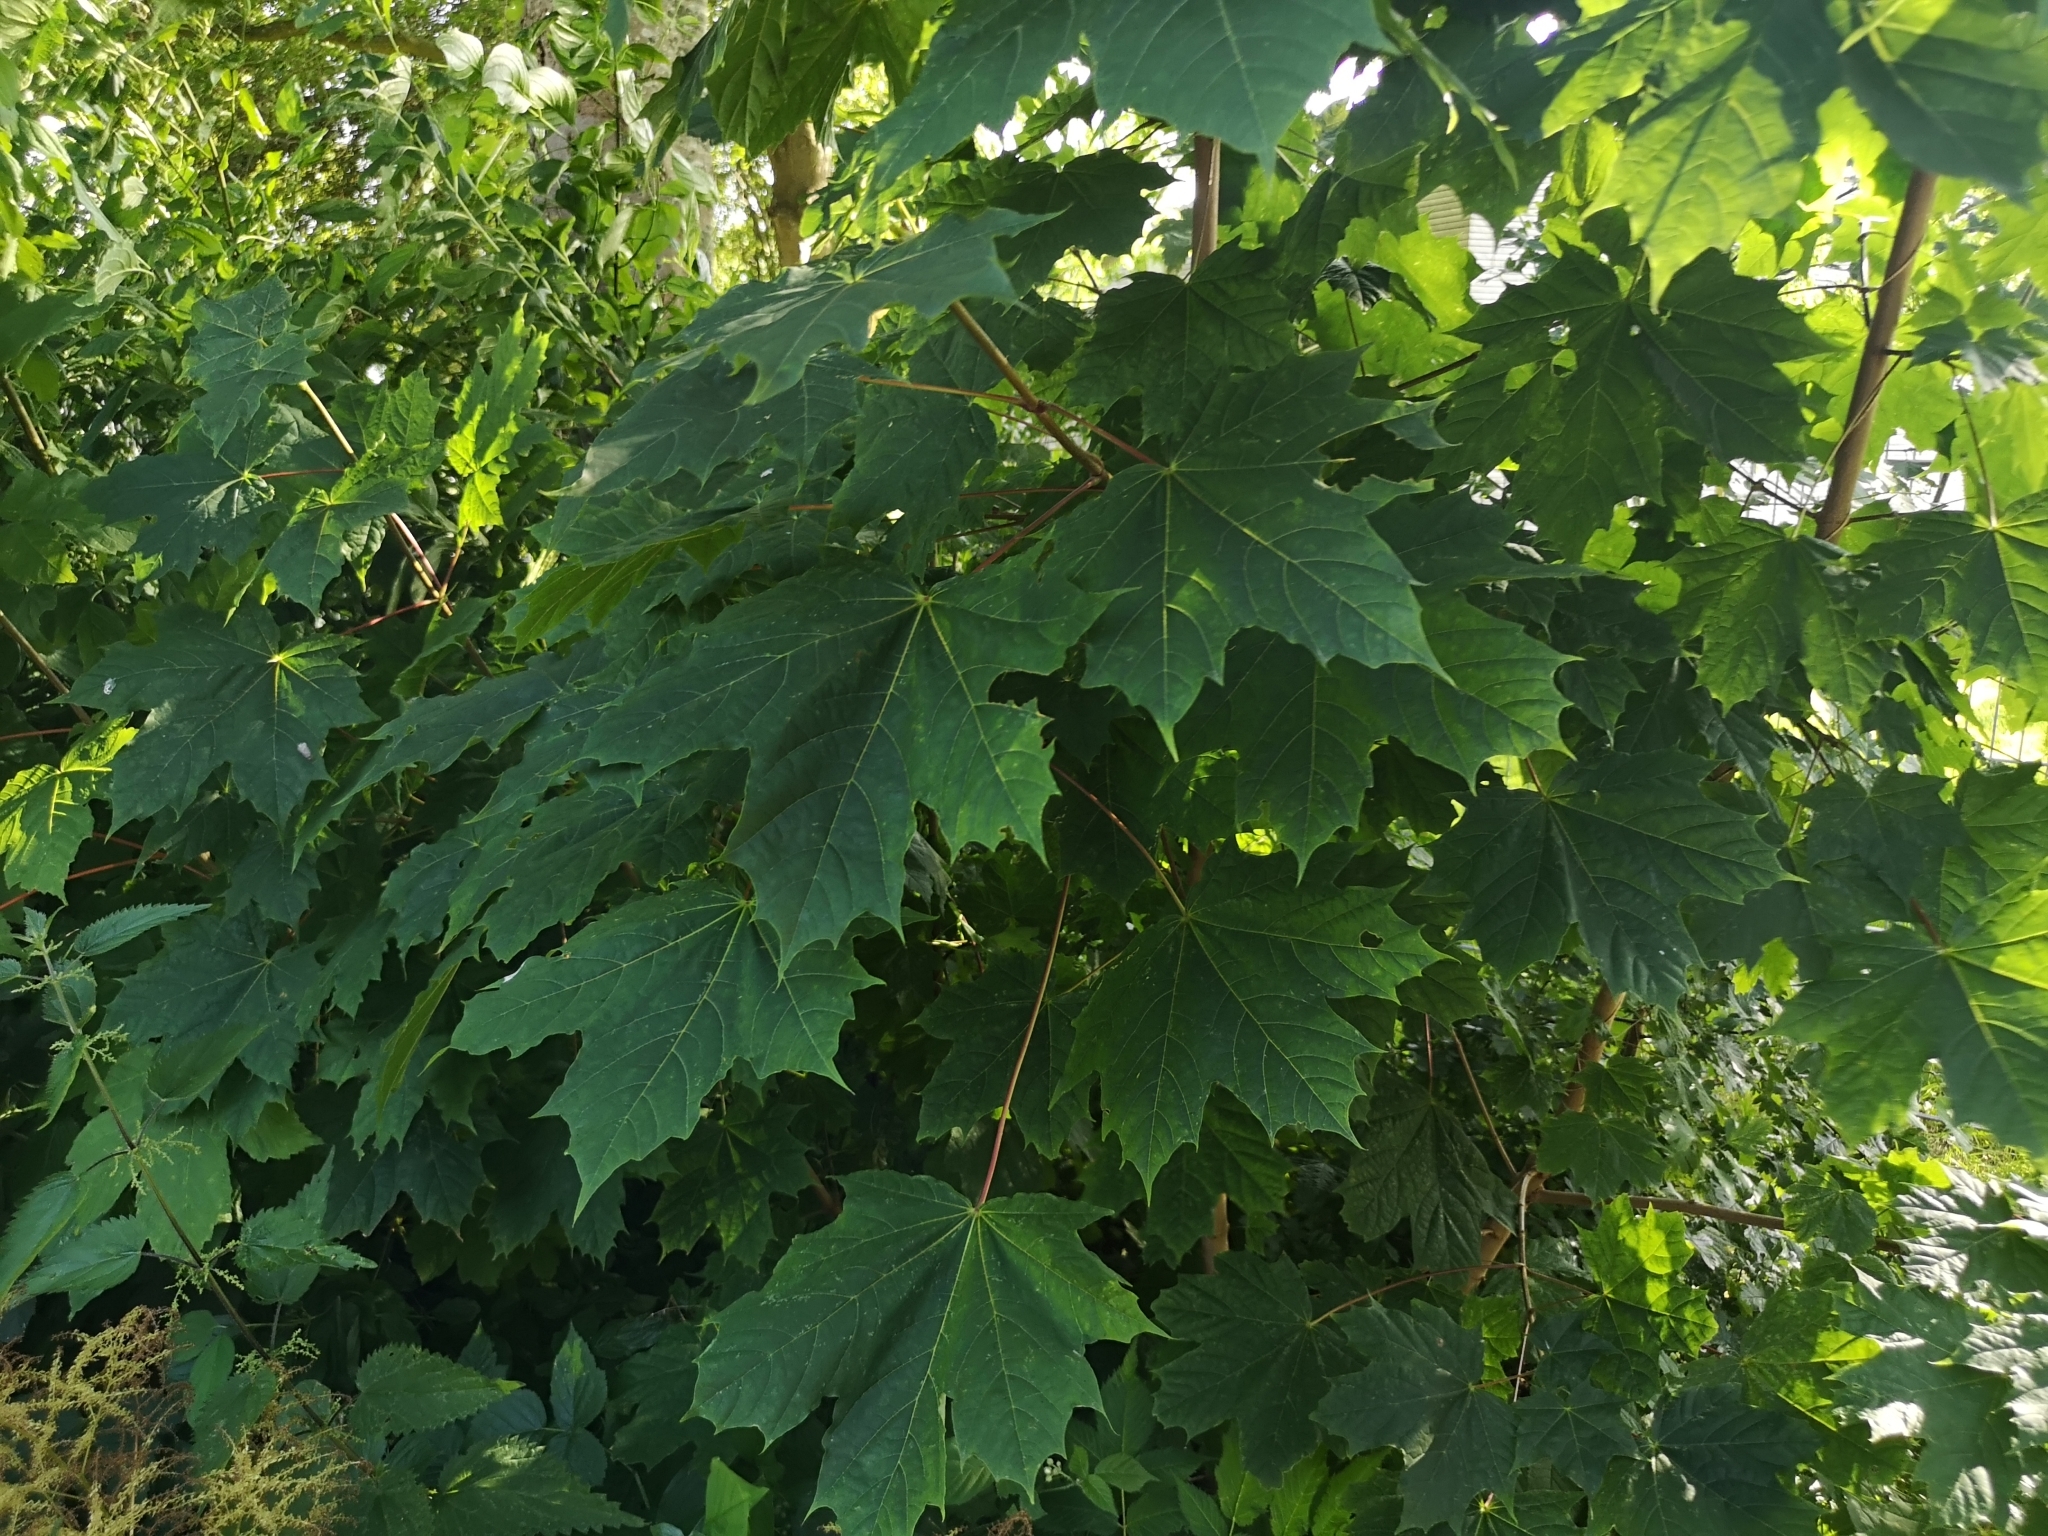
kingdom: Plantae
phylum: Tracheophyta
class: Magnoliopsida
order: Sapindales
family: Sapindaceae
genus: Acer
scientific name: Acer platanoides
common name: Norway maple
